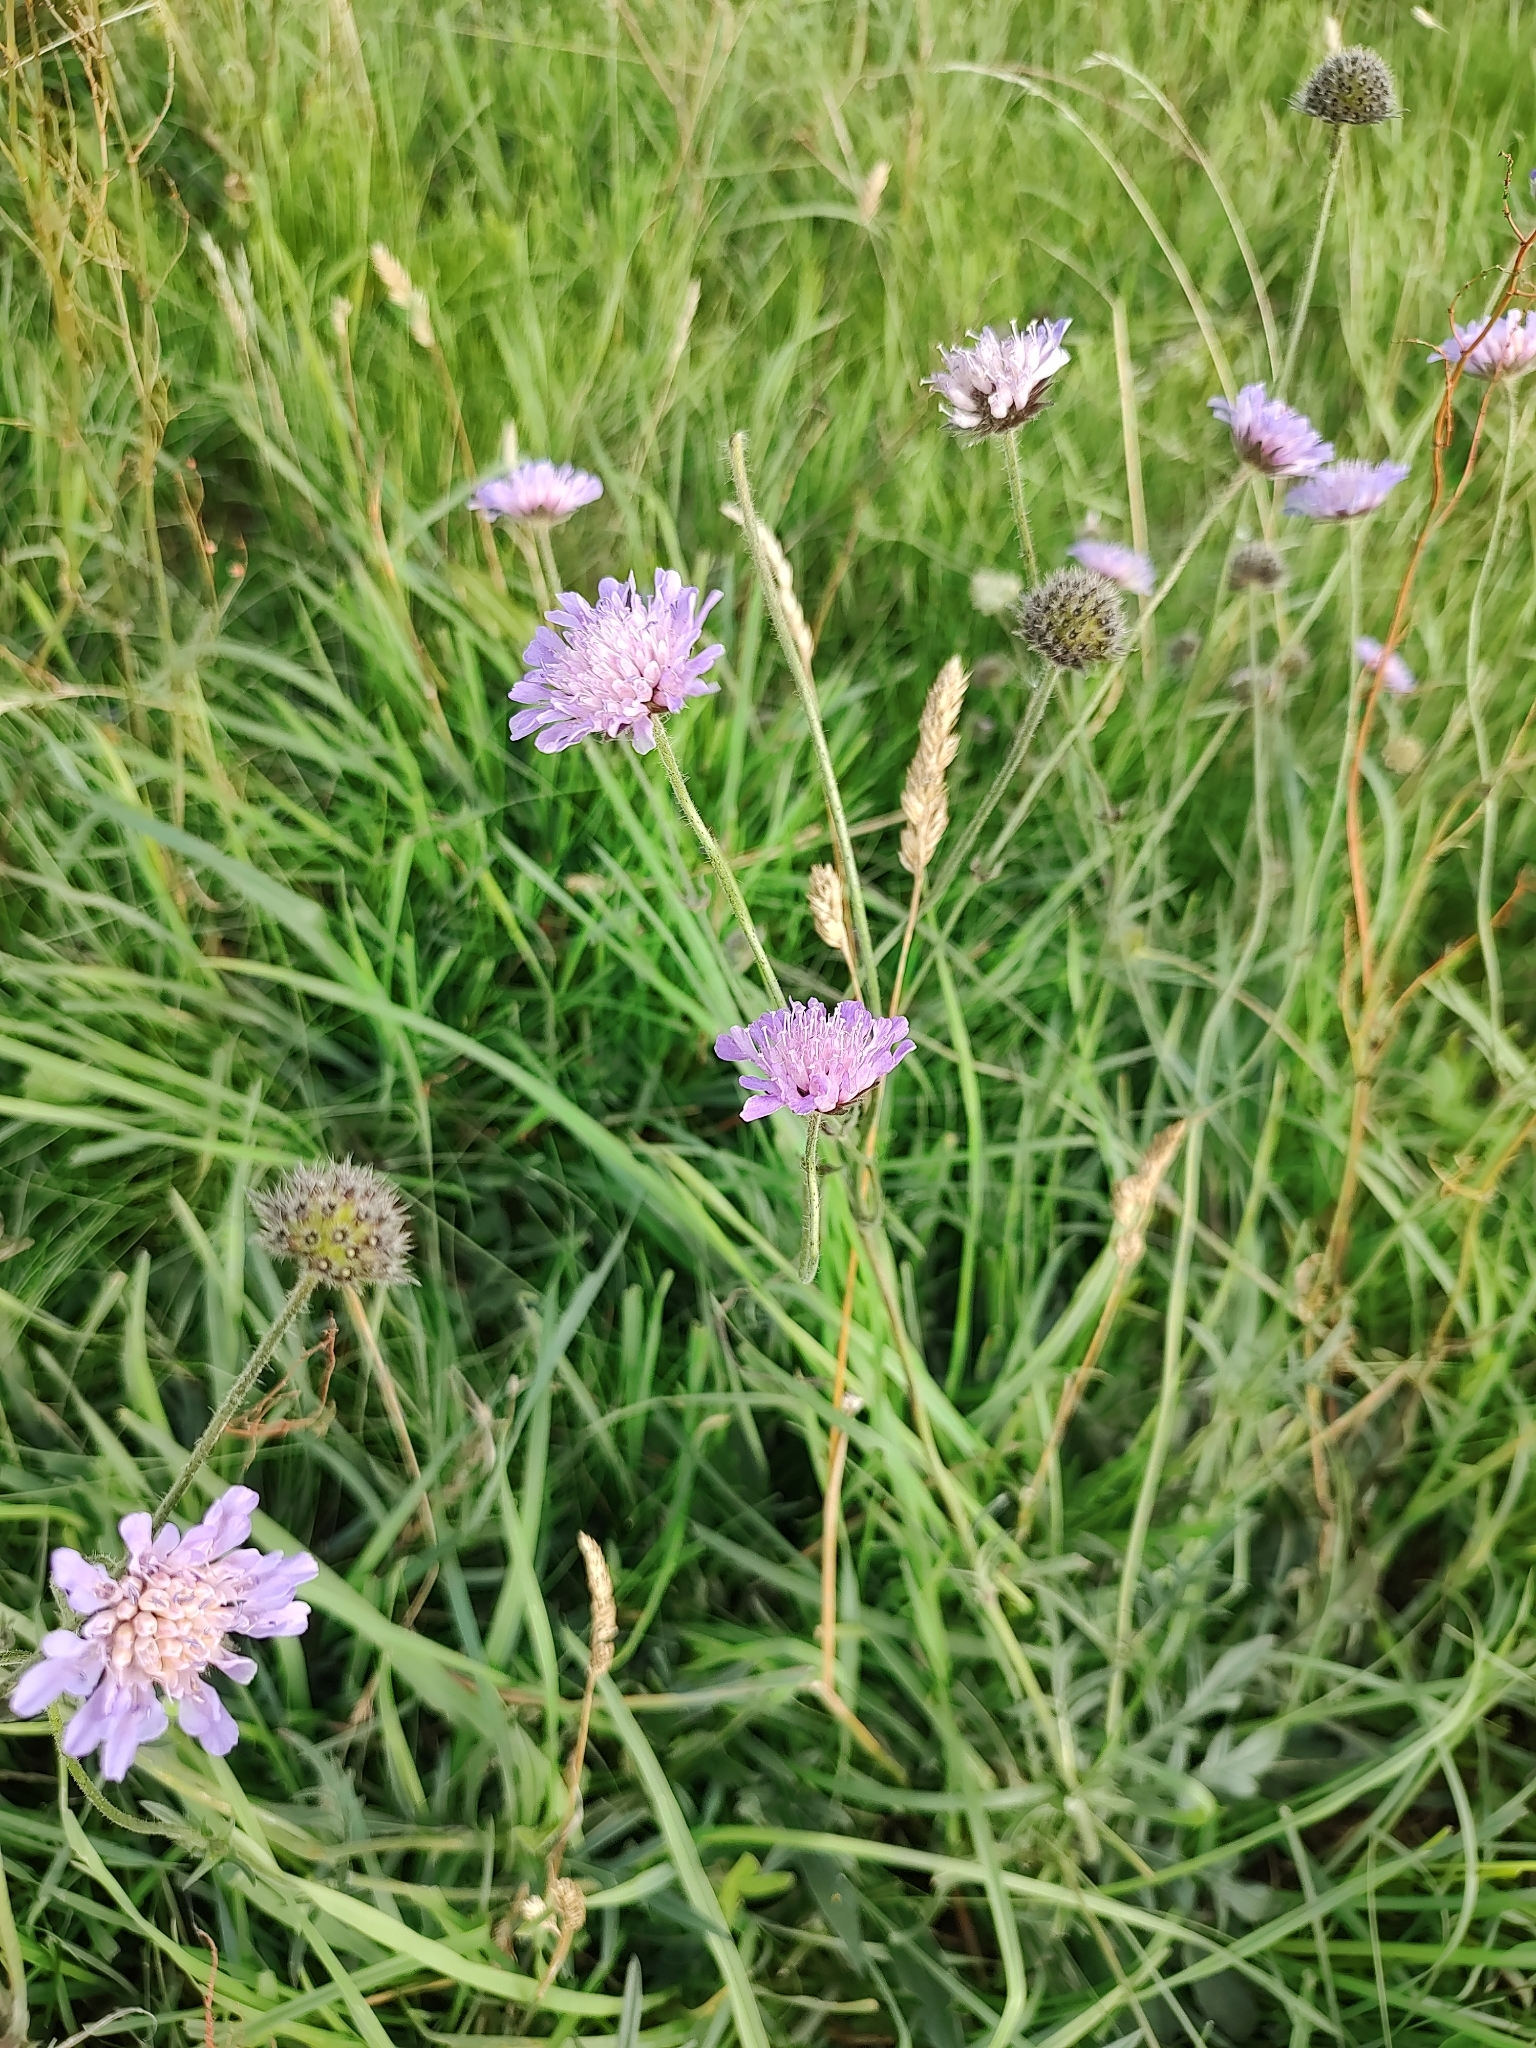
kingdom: Plantae
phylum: Tracheophyta
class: Magnoliopsida
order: Dipsacales
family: Caprifoliaceae
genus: Knautia
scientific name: Knautia arvensis
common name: Field scabiosa
